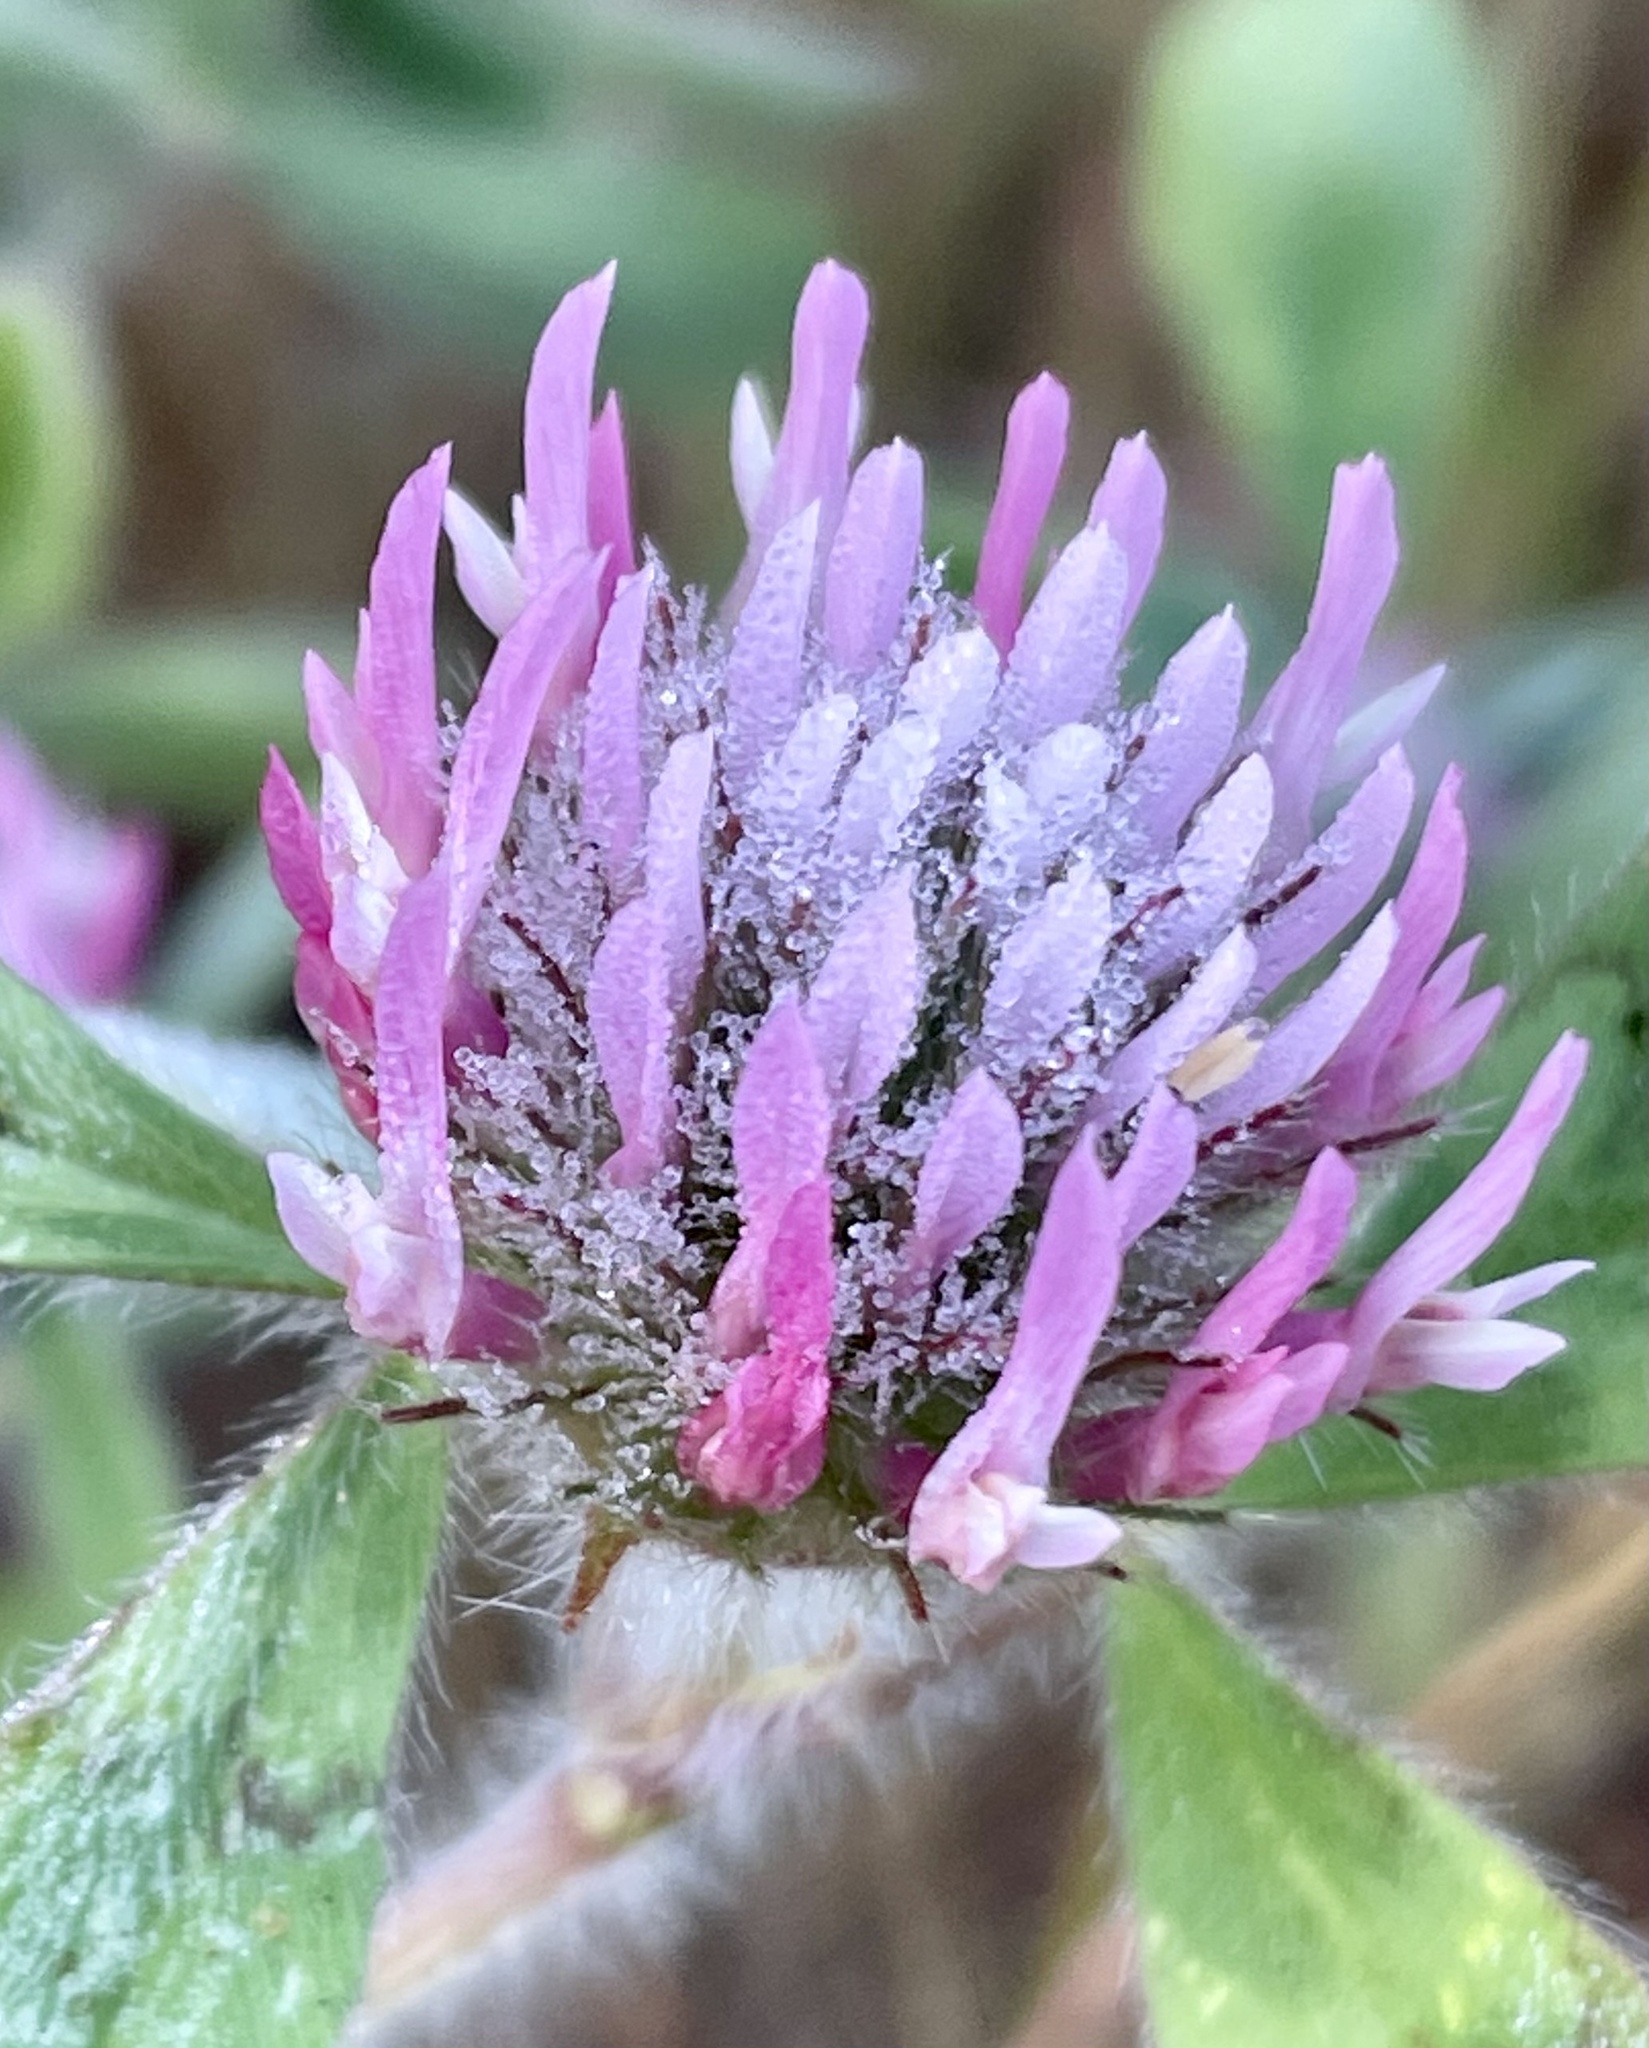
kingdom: Plantae
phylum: Tracheophyta
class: Magnoliopsida
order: Fabales
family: Fabaceae
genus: Trifolium
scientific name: Trifolium hirtum
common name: Rose clover
